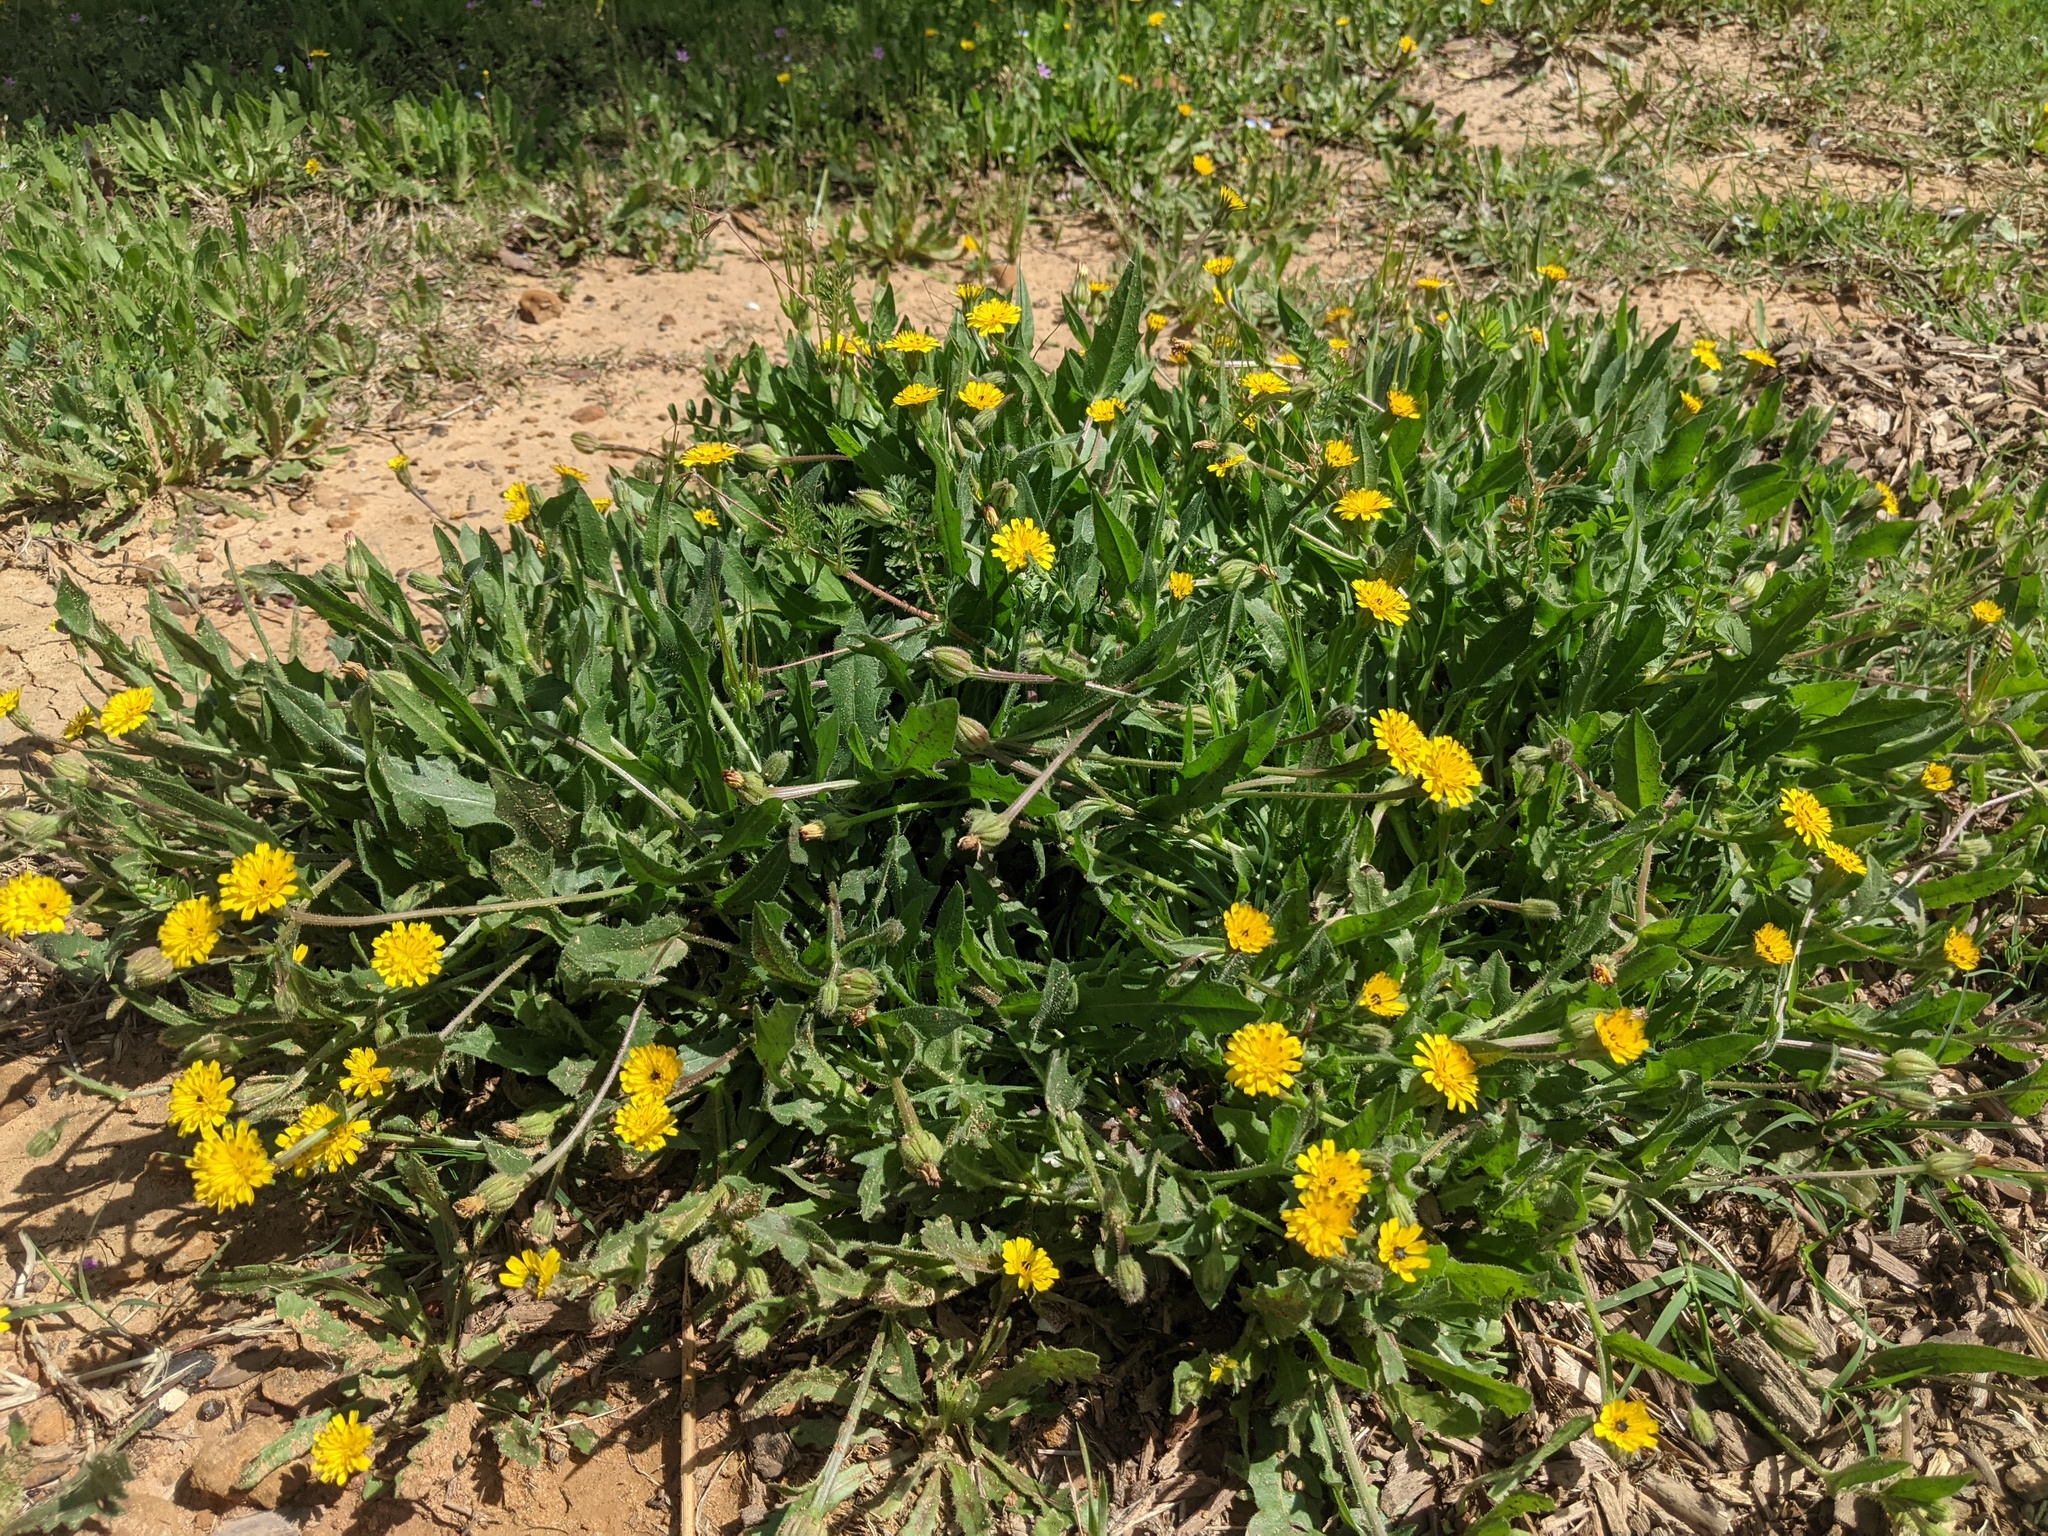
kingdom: Plantae
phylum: Tracheophyta
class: Magnoliopsida
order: Asterales
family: Asteraceae
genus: Hedypnois
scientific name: Hedypnois rhagadioloides
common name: Cretan weed
